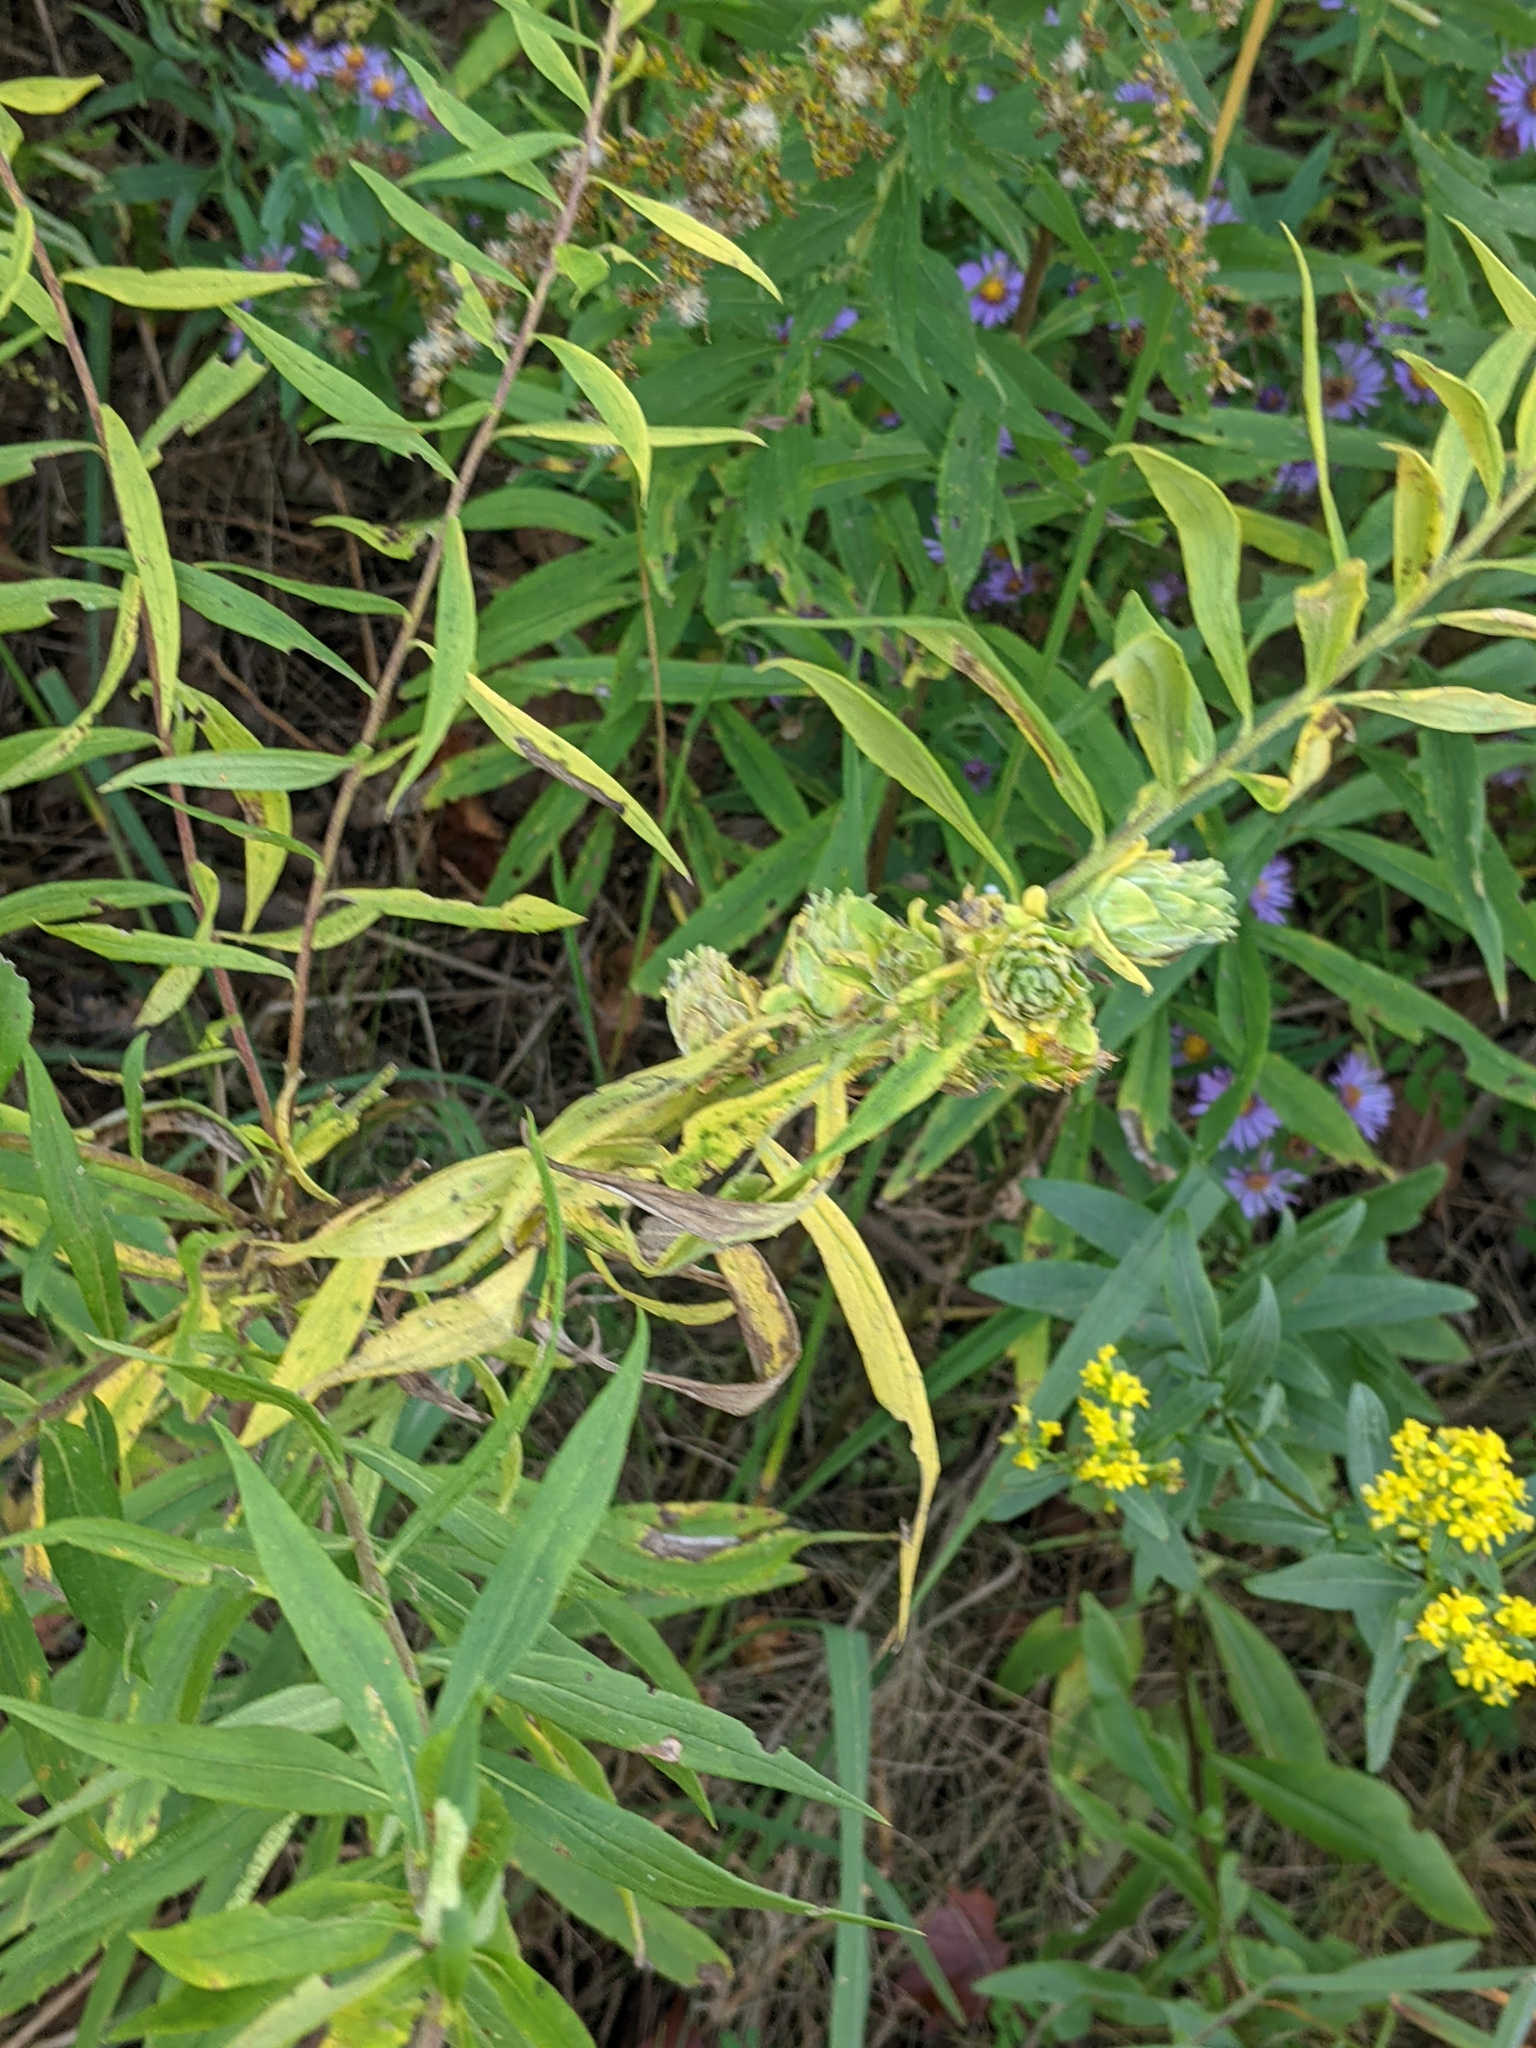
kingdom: Animalia
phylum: Arthropoda
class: Insecta
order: Diptera
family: Tephritidae
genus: Procecidochares
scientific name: Procecidochares atra
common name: Goldenrod brussels sprout gall fly
